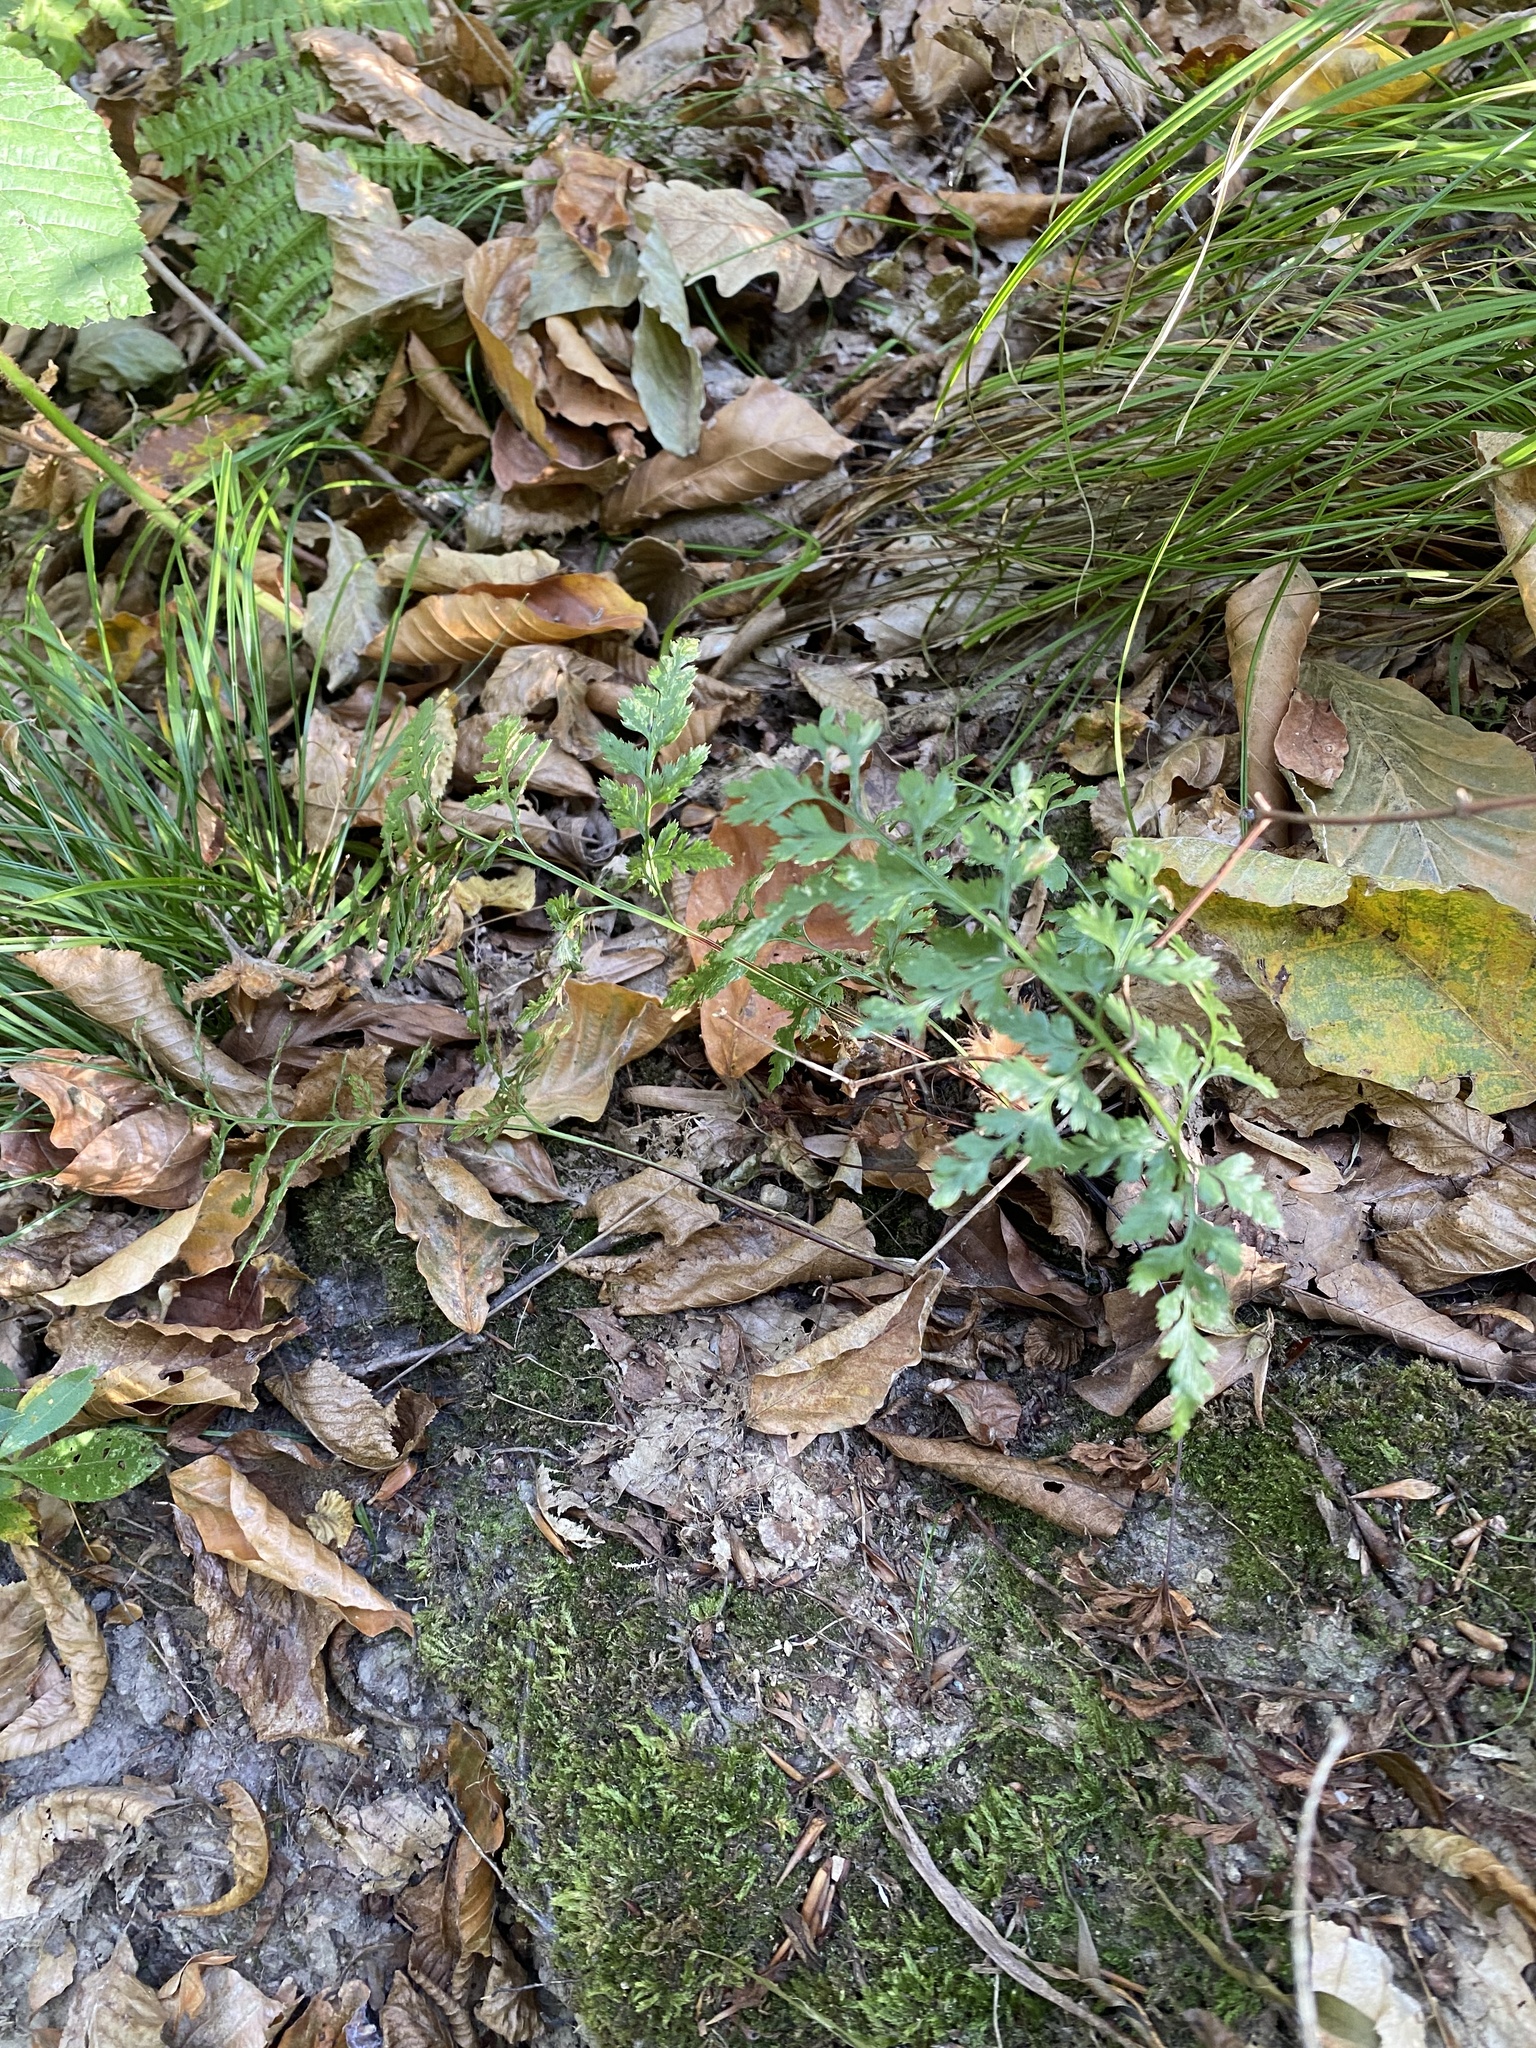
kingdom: Plantae
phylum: Tracheophyta
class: Polypodiopsida
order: Polypodiales
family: Aspleniaceae
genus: Asplenium
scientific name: Asplenium adiantum-nigrum
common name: Black spleenwort
